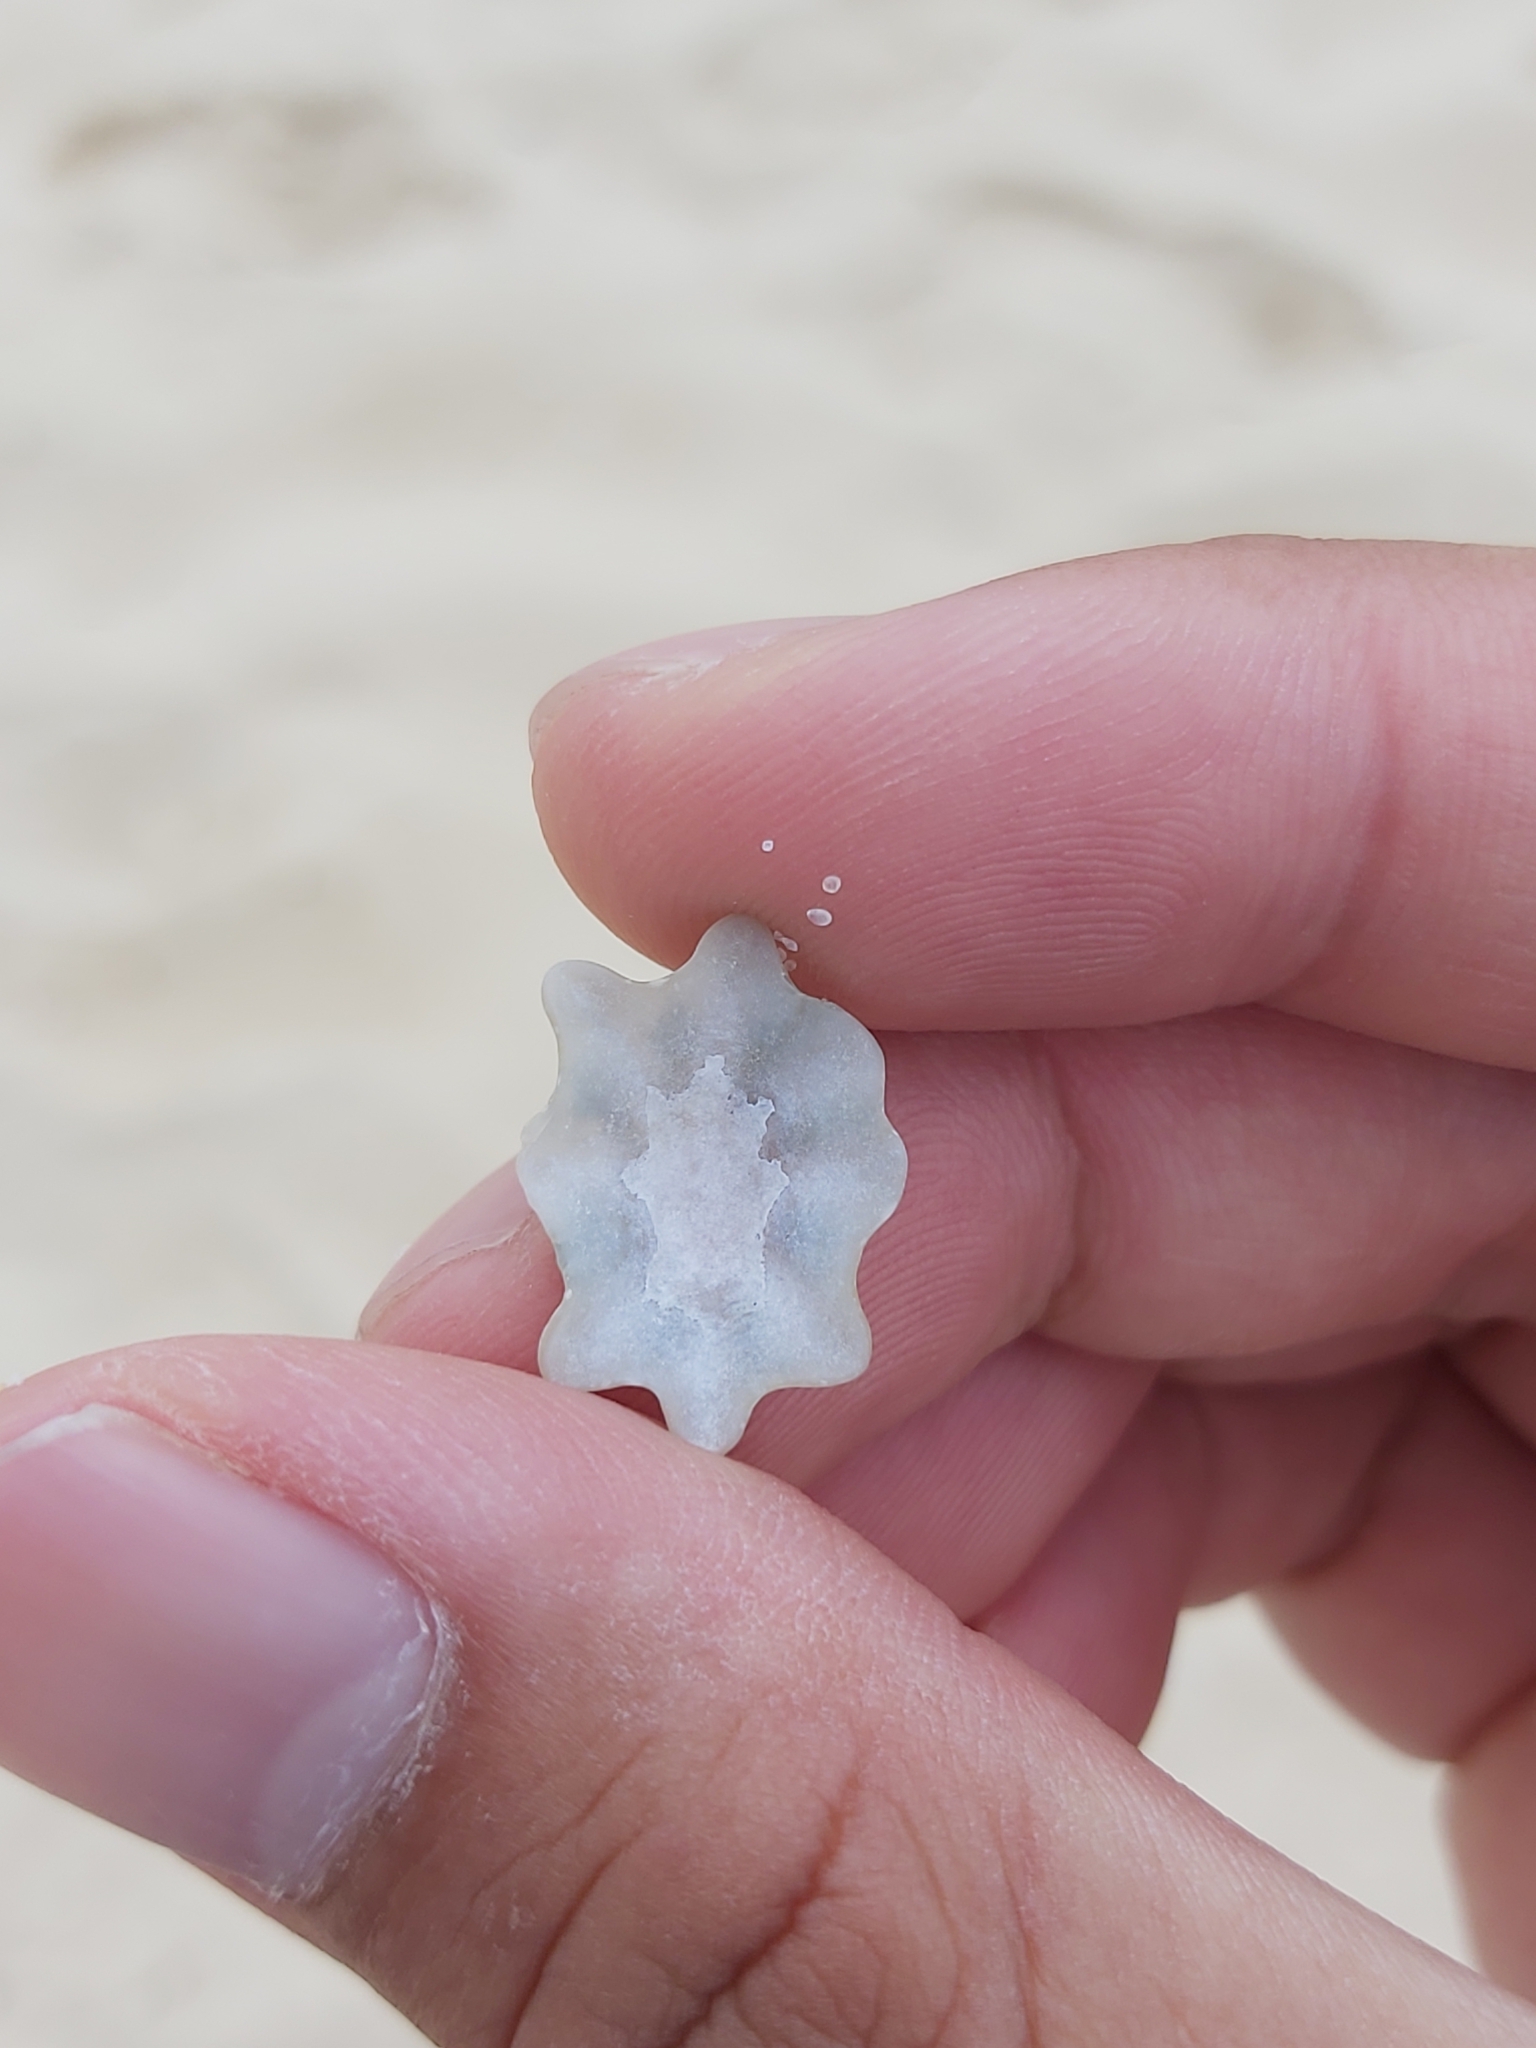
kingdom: Animalia
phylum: Mollusca
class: Gastropoda
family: Patellidae
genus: Scutellastra
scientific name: Scutellastra chapmani
